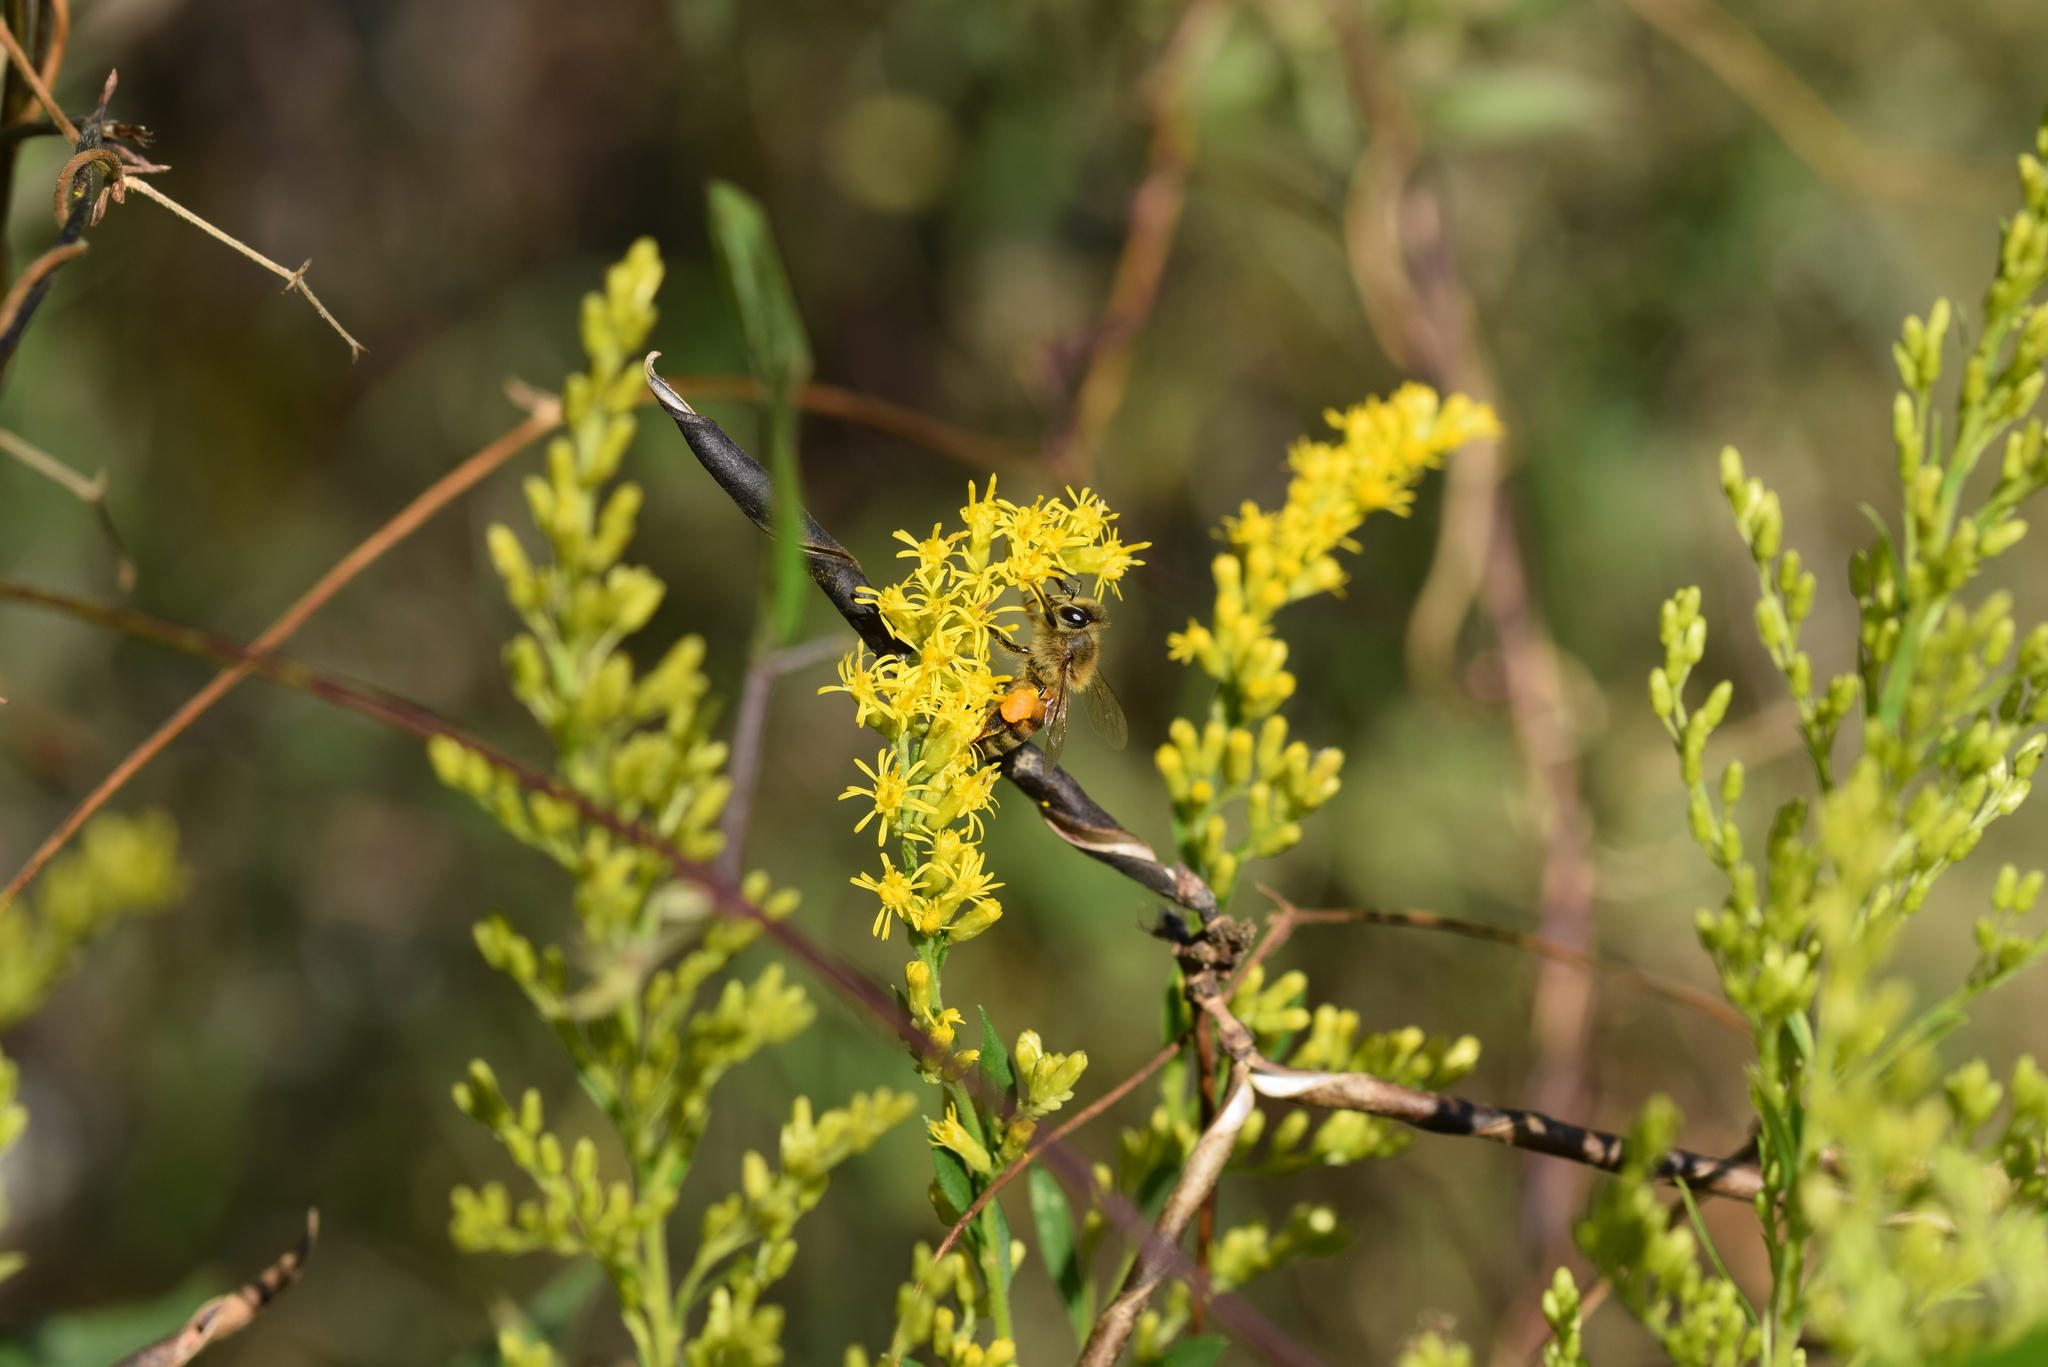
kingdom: Animalia
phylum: Arthropoda
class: Insecta
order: Hymenoptera
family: Apidae
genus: Apis
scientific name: Apis mellifera
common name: Honey bee
